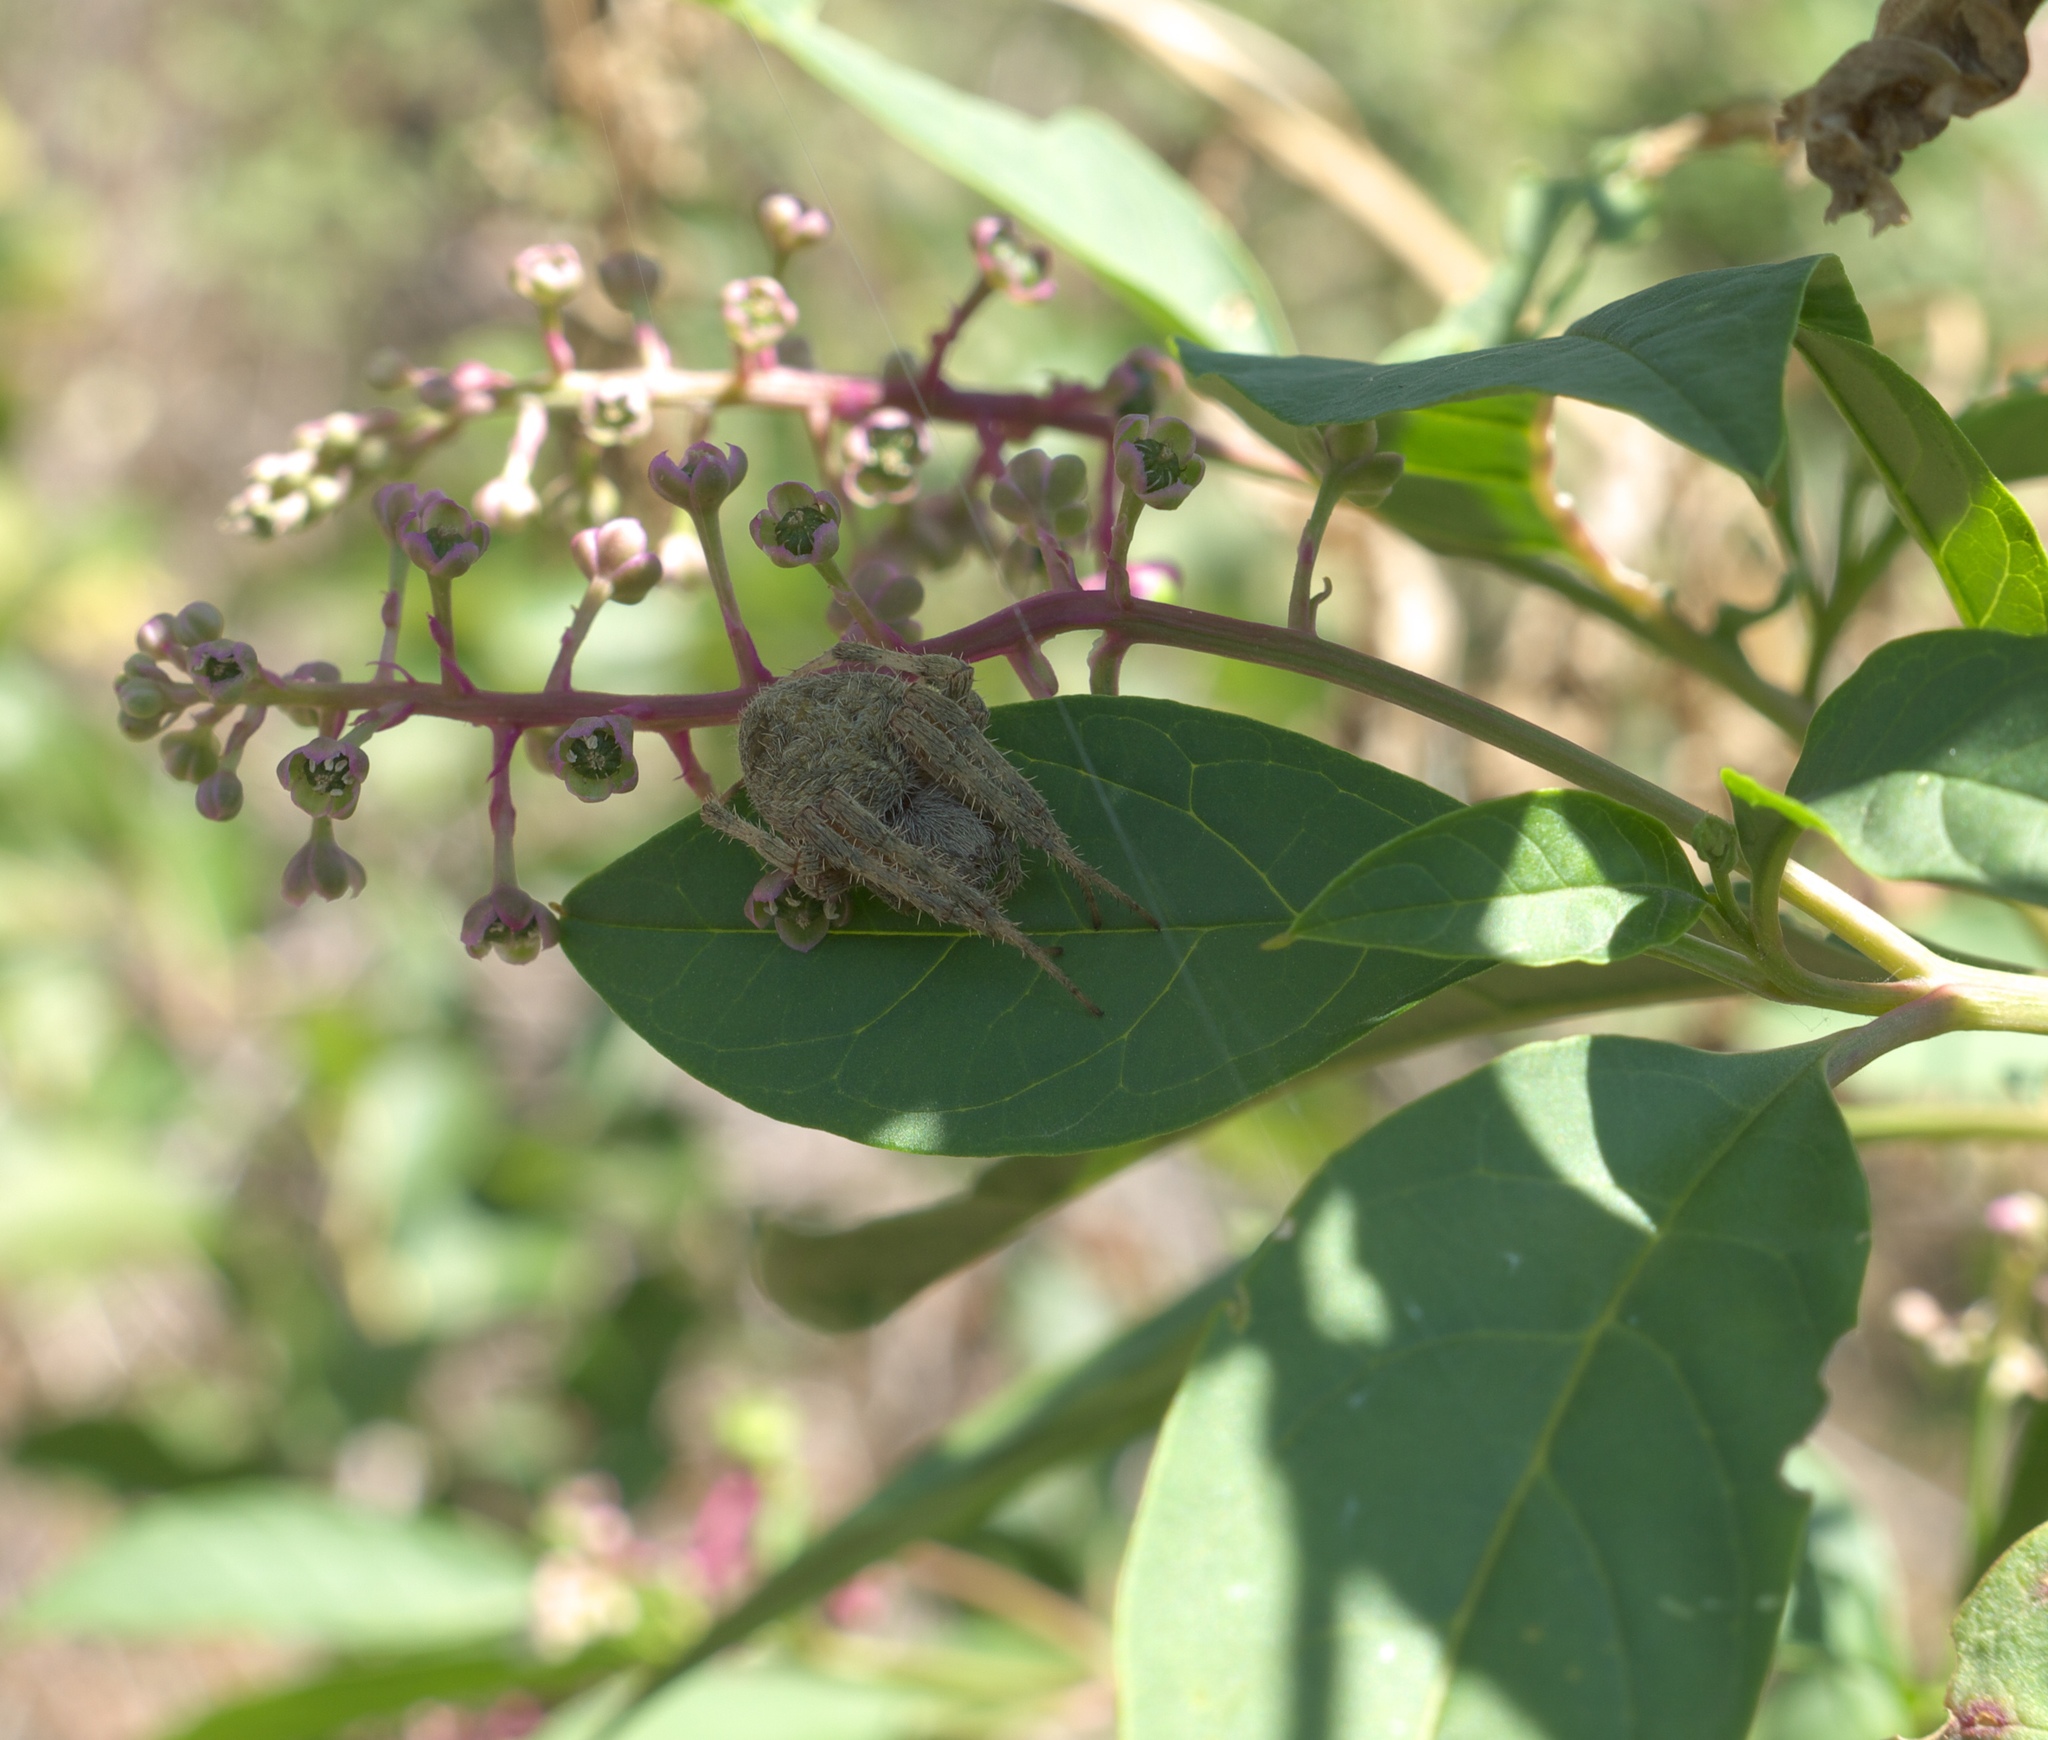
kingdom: Plantae
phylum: Tracheophyta
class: Magnoliopsida
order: Caryophyllales
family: Phytolaccaceae
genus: Phytolacca
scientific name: Phytolacca americana
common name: American pokeweed
